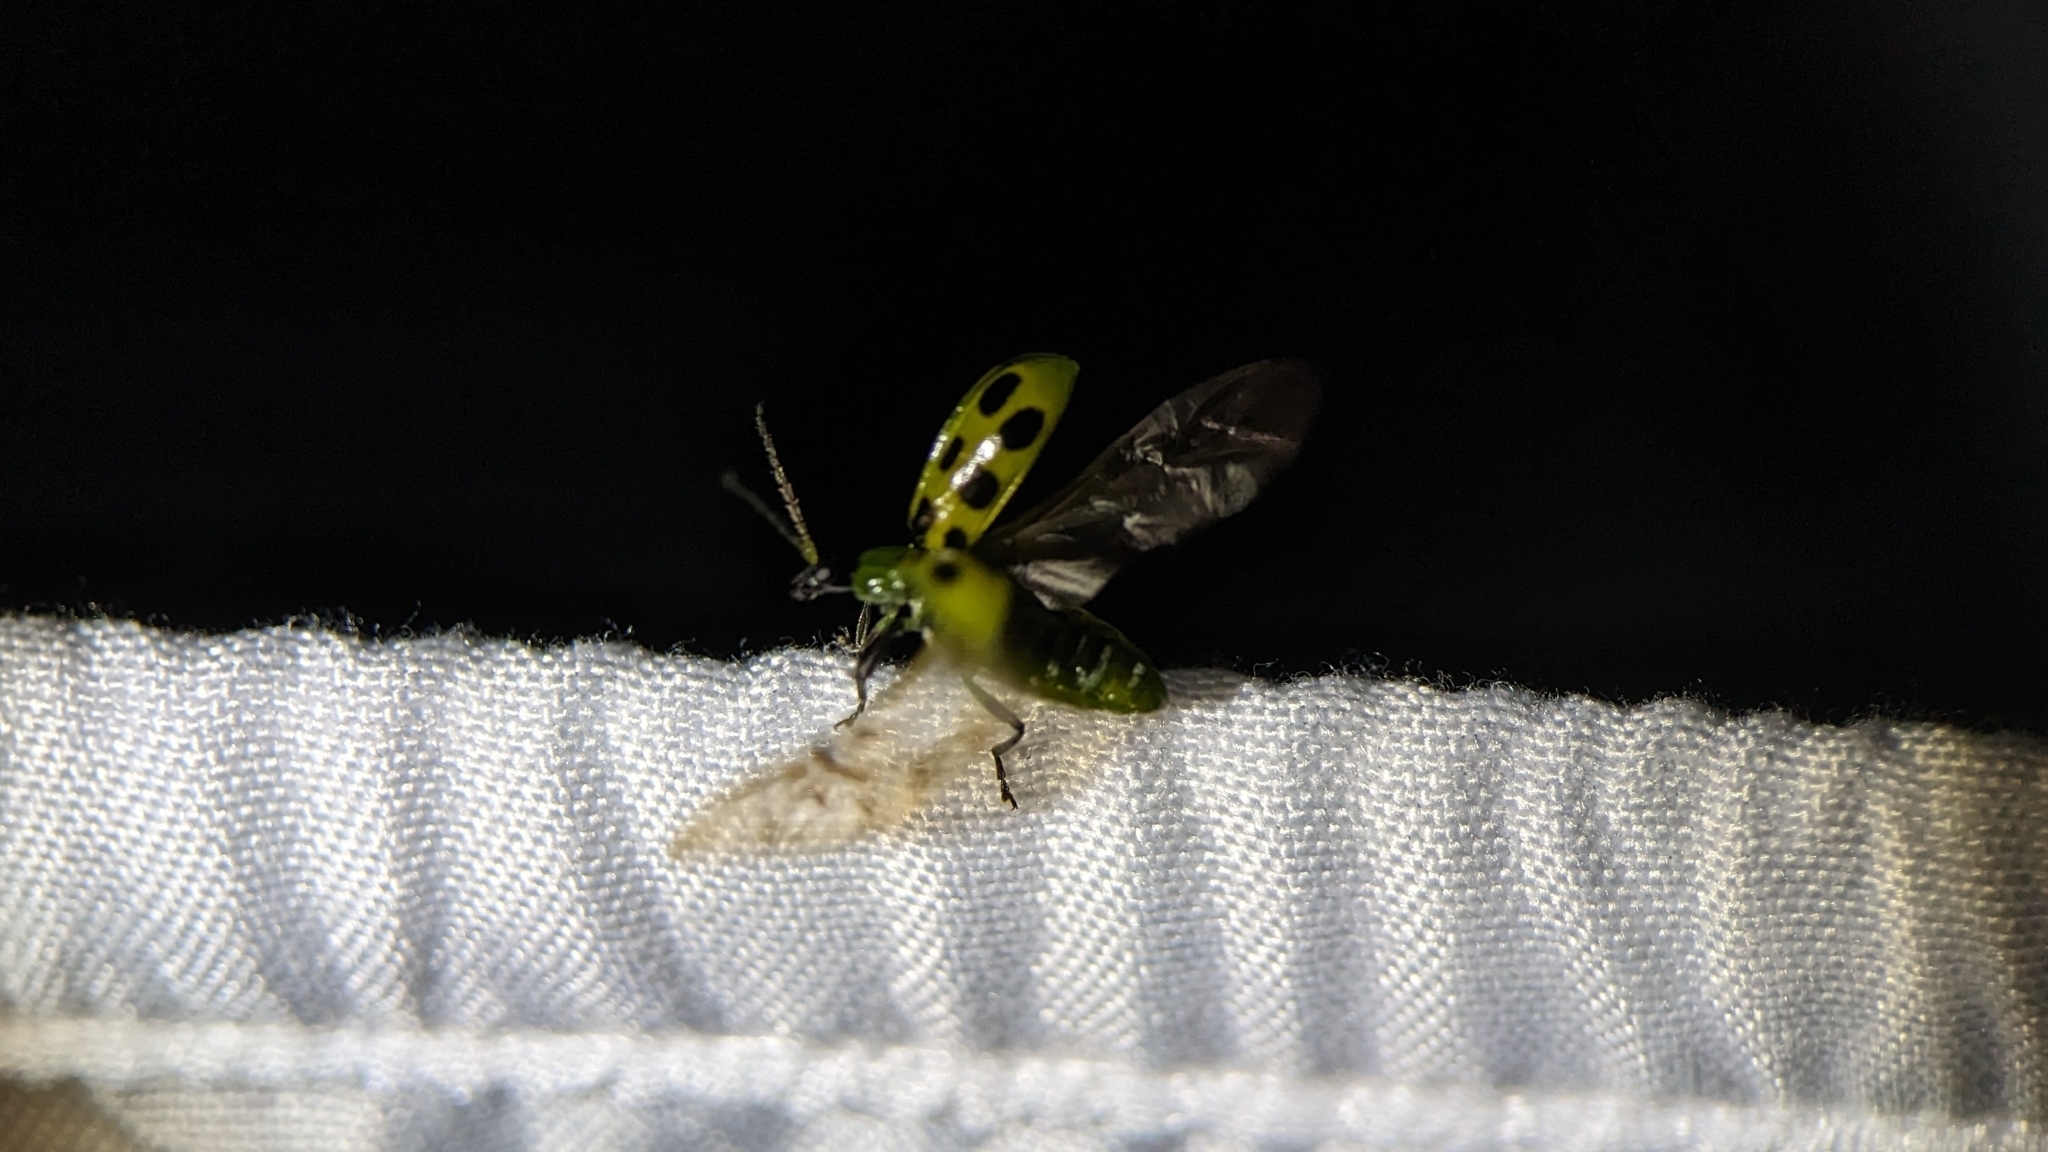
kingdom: Animalia
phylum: Arthropoda
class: Insecta
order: Coleoptera
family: Chrysomelidae
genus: Diabrotica
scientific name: Diabrotica undecimpunctata
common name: Spotted cucumber beetle
